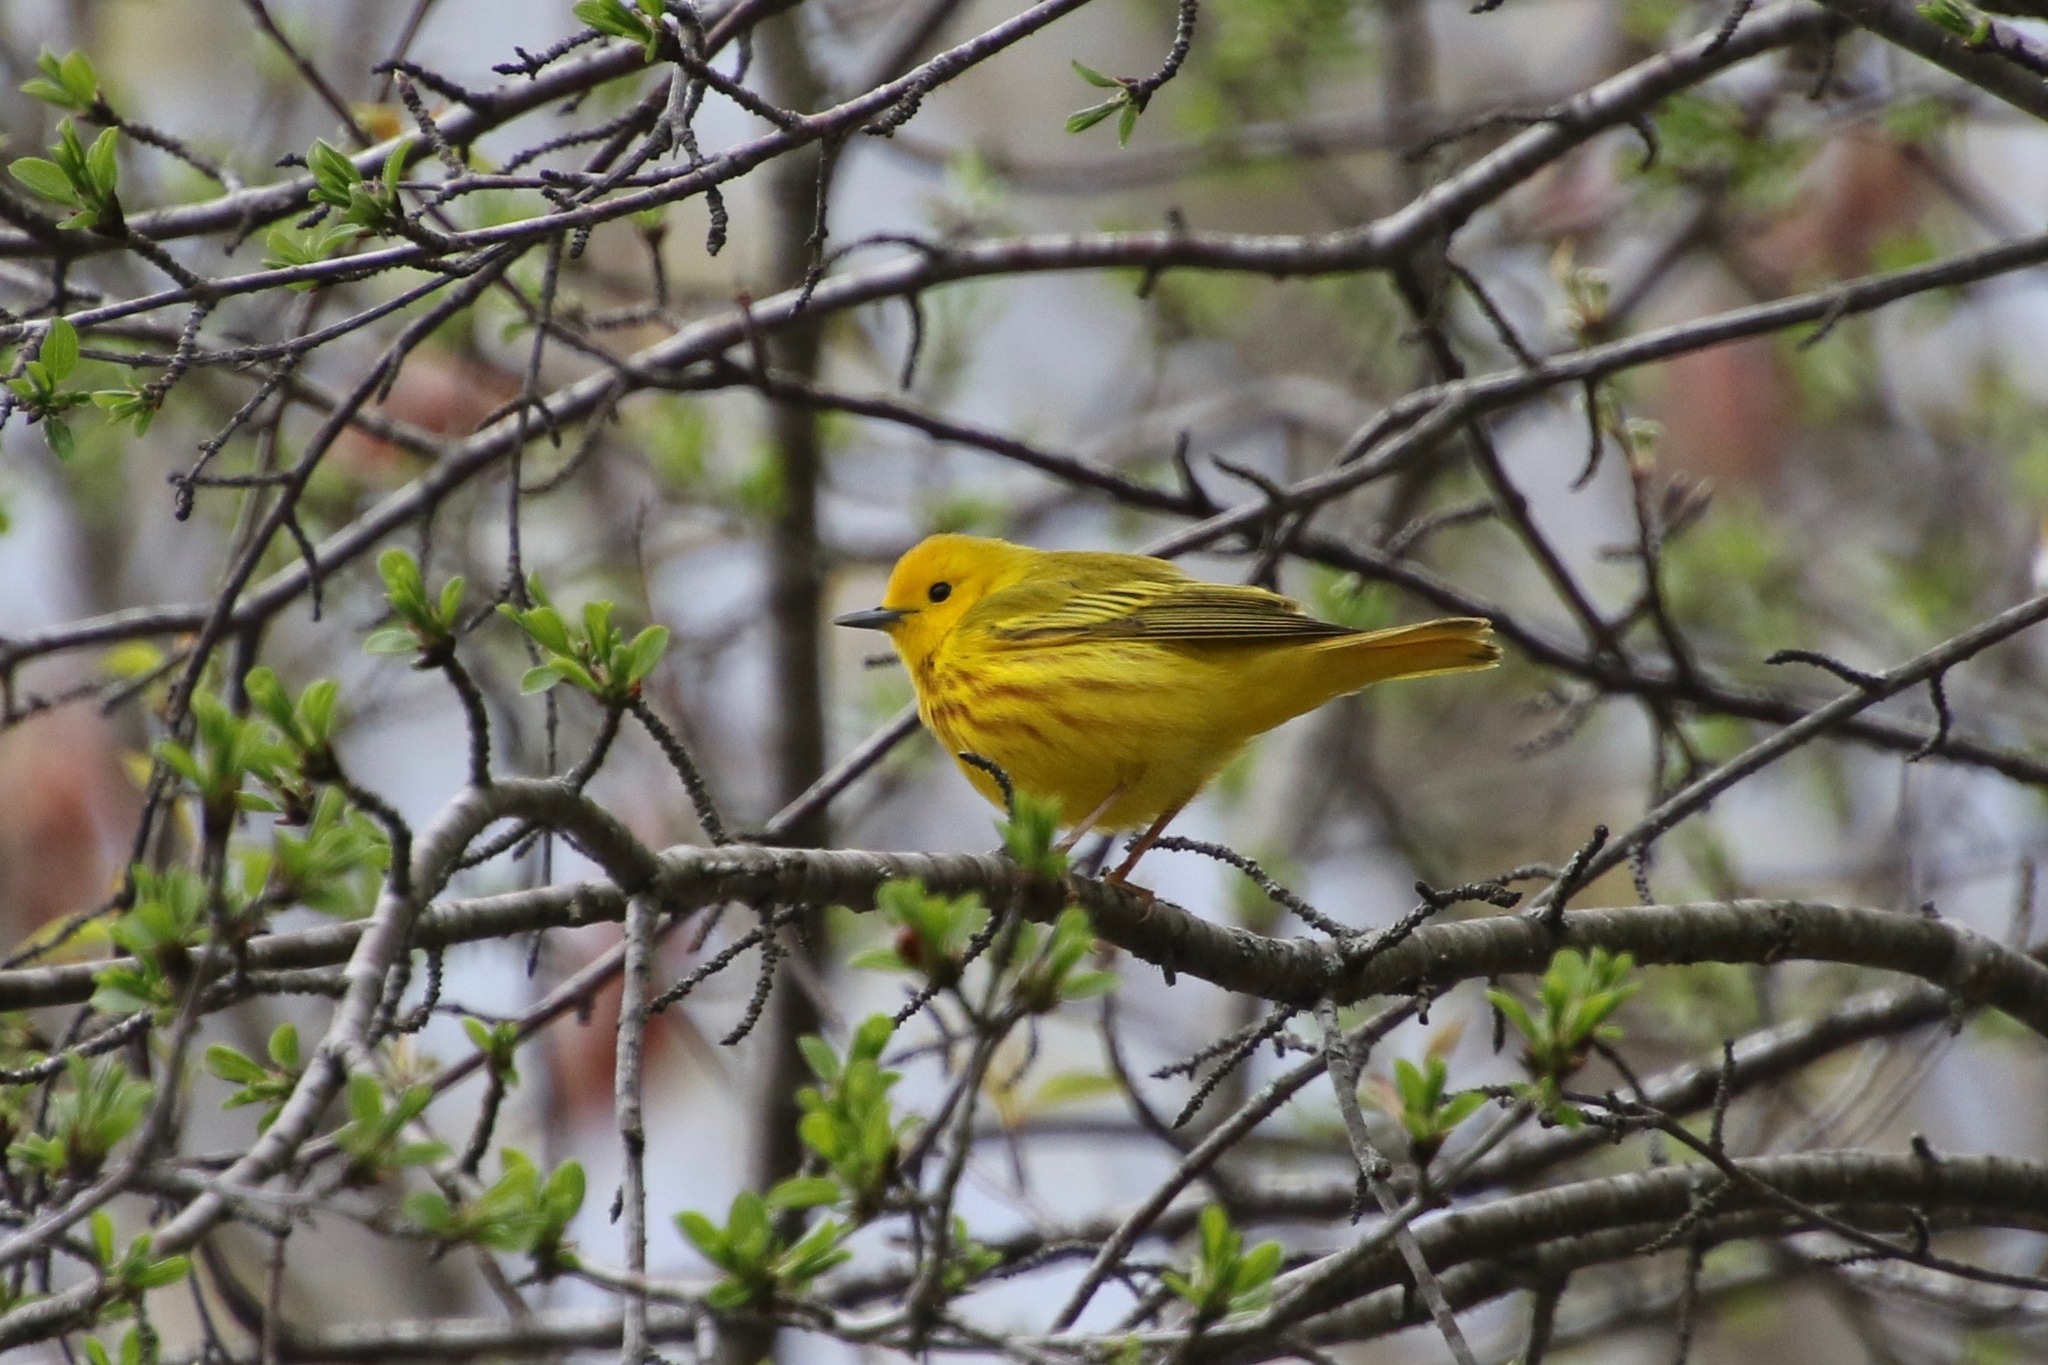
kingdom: Animalia
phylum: Chordata
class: Aves
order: Passeriformes
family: Parulidae
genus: Setophaga
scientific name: Setophaga petechia
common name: Yellow warbler
